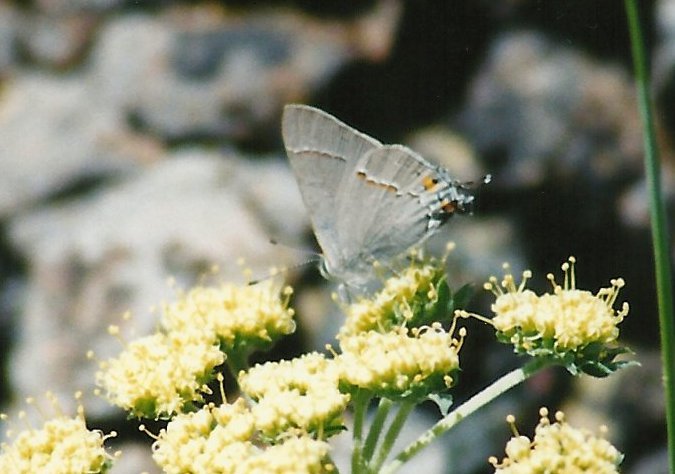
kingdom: Animalia
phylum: Arthropoda
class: Insecta
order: Lepidoptera
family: Lycaenidae
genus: Strymon
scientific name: Strymon melinus
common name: Gray hairstreak
